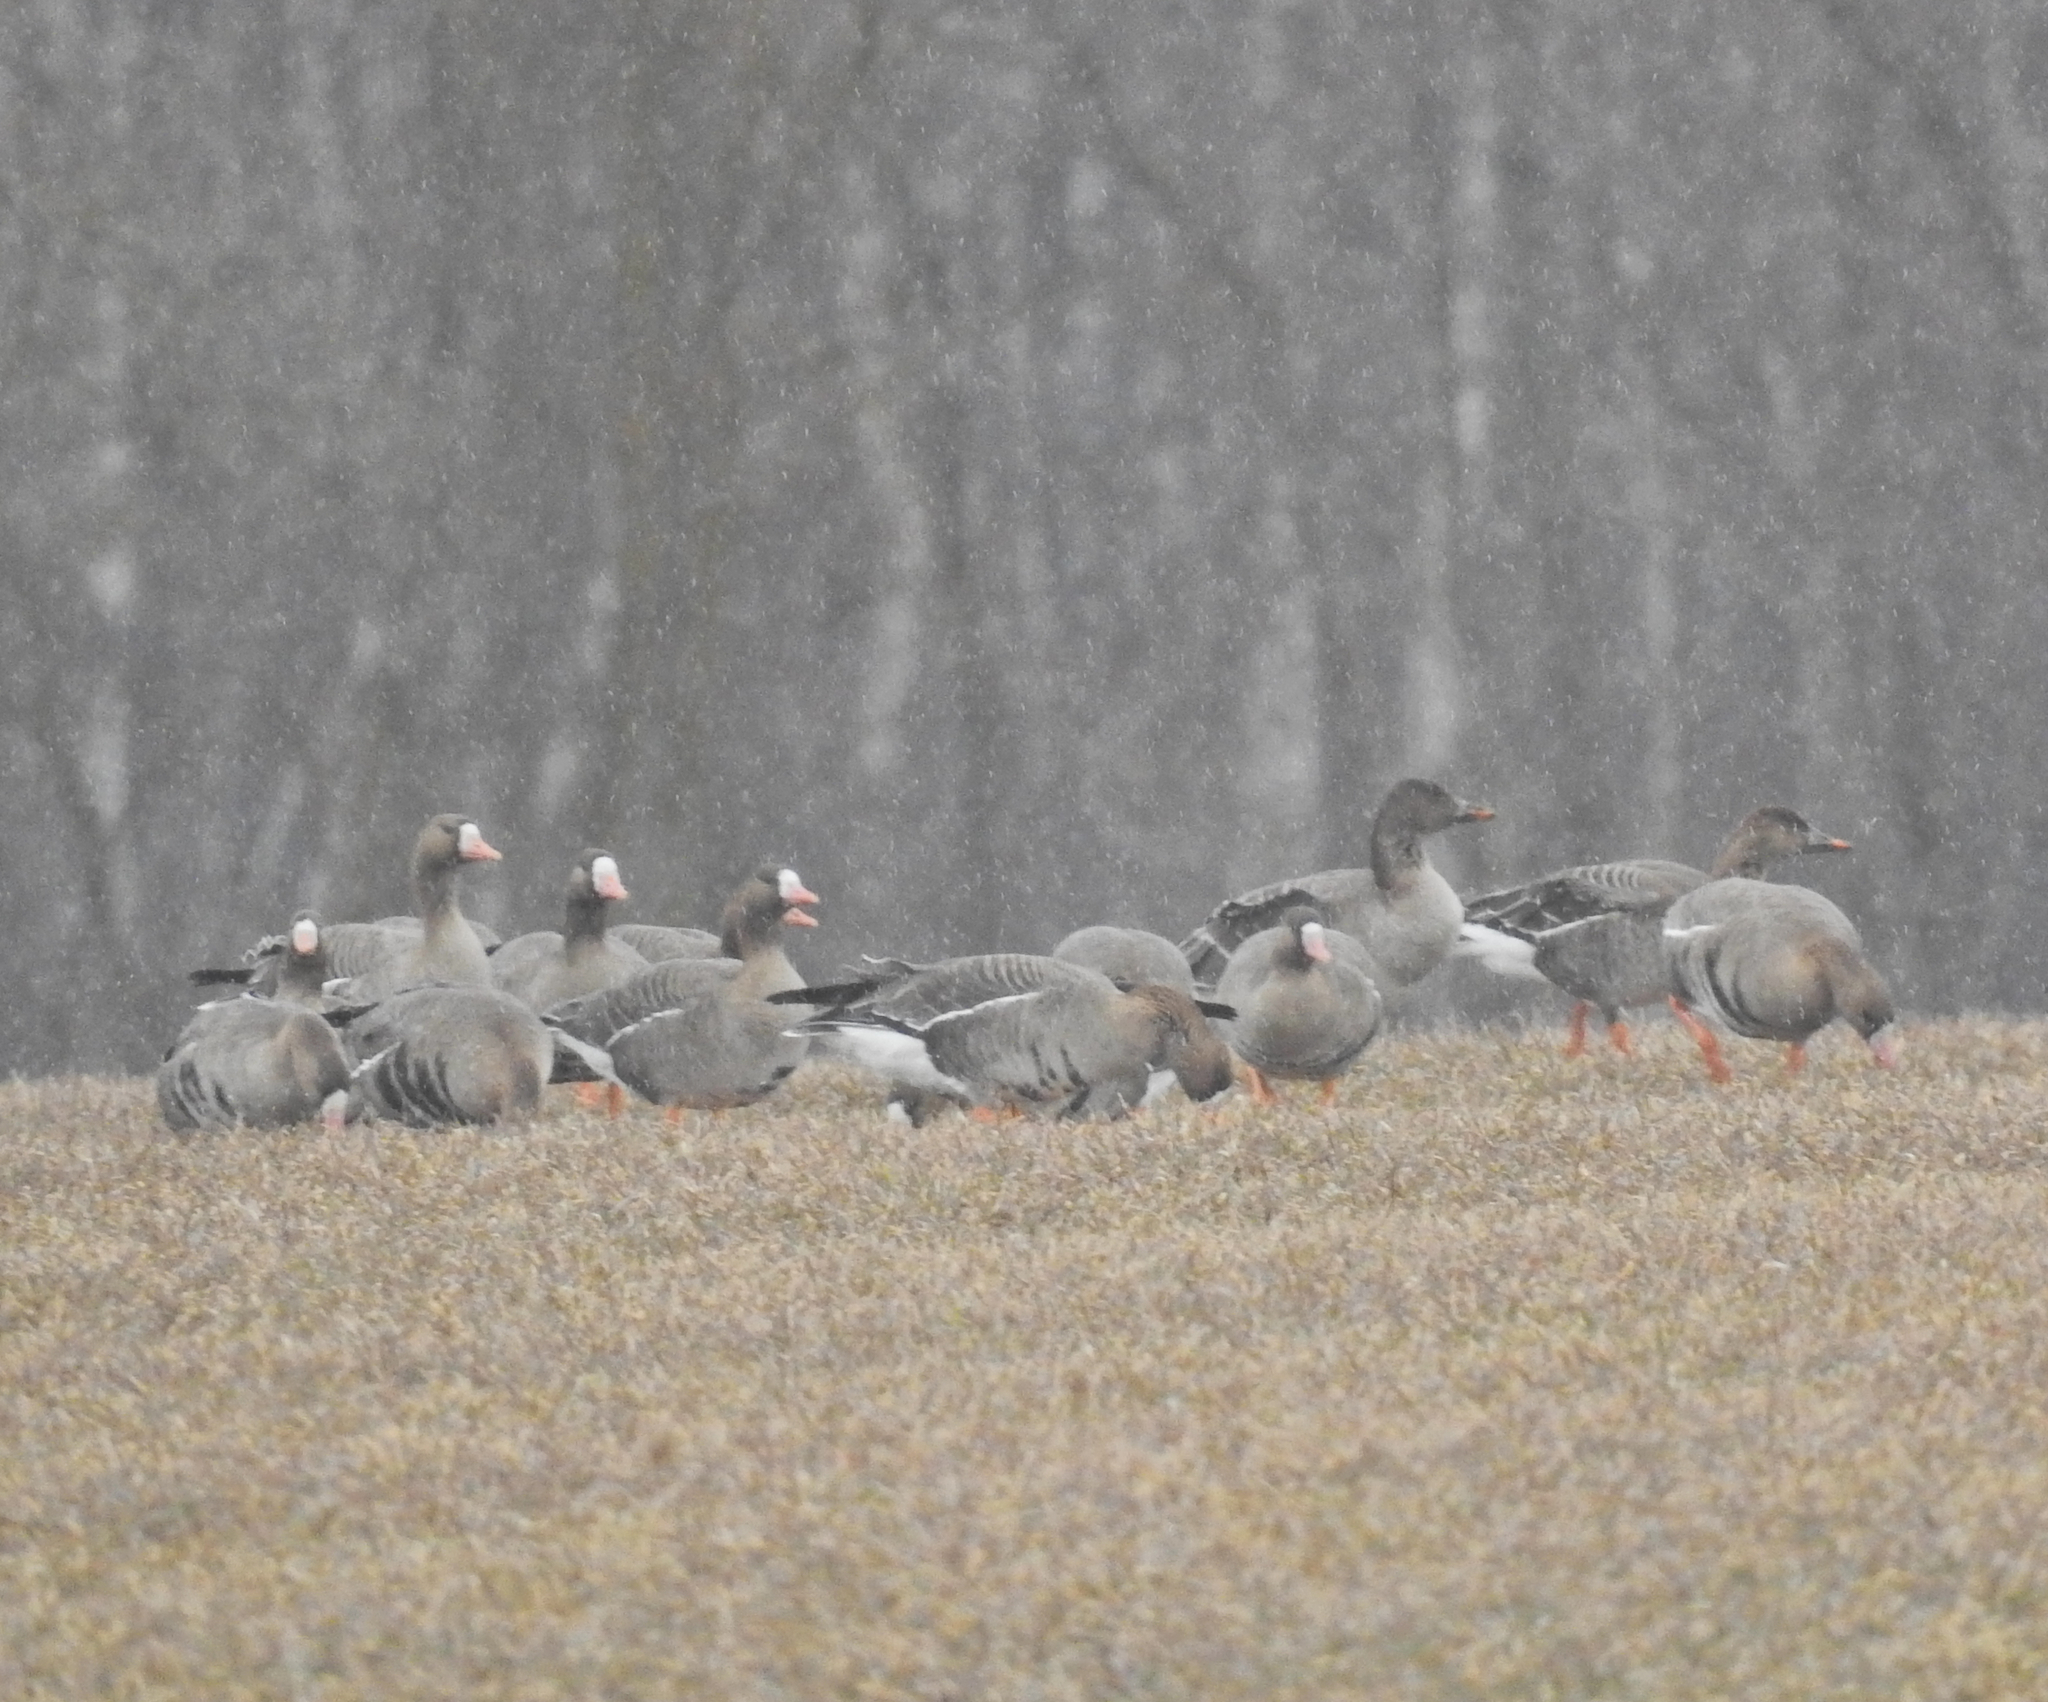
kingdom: Animalia
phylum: Chordata
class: Aves
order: Anseriformes
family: Anatidae
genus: Anser
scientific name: Anser serrirostris
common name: Tundra bean goose
